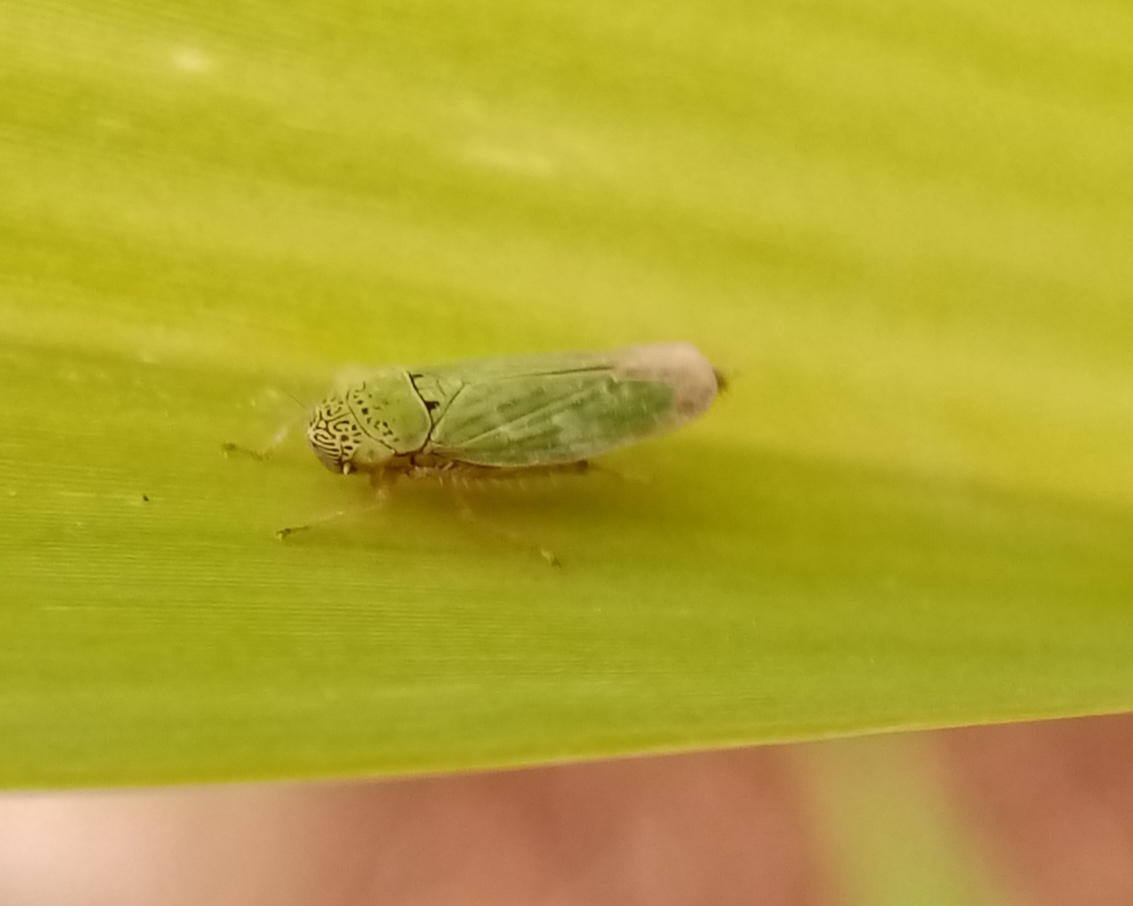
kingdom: Animalia
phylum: Arthropoda
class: Insecta
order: Hemiptera
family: Cicadellidae
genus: Hortensia
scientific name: Hortensia similis
